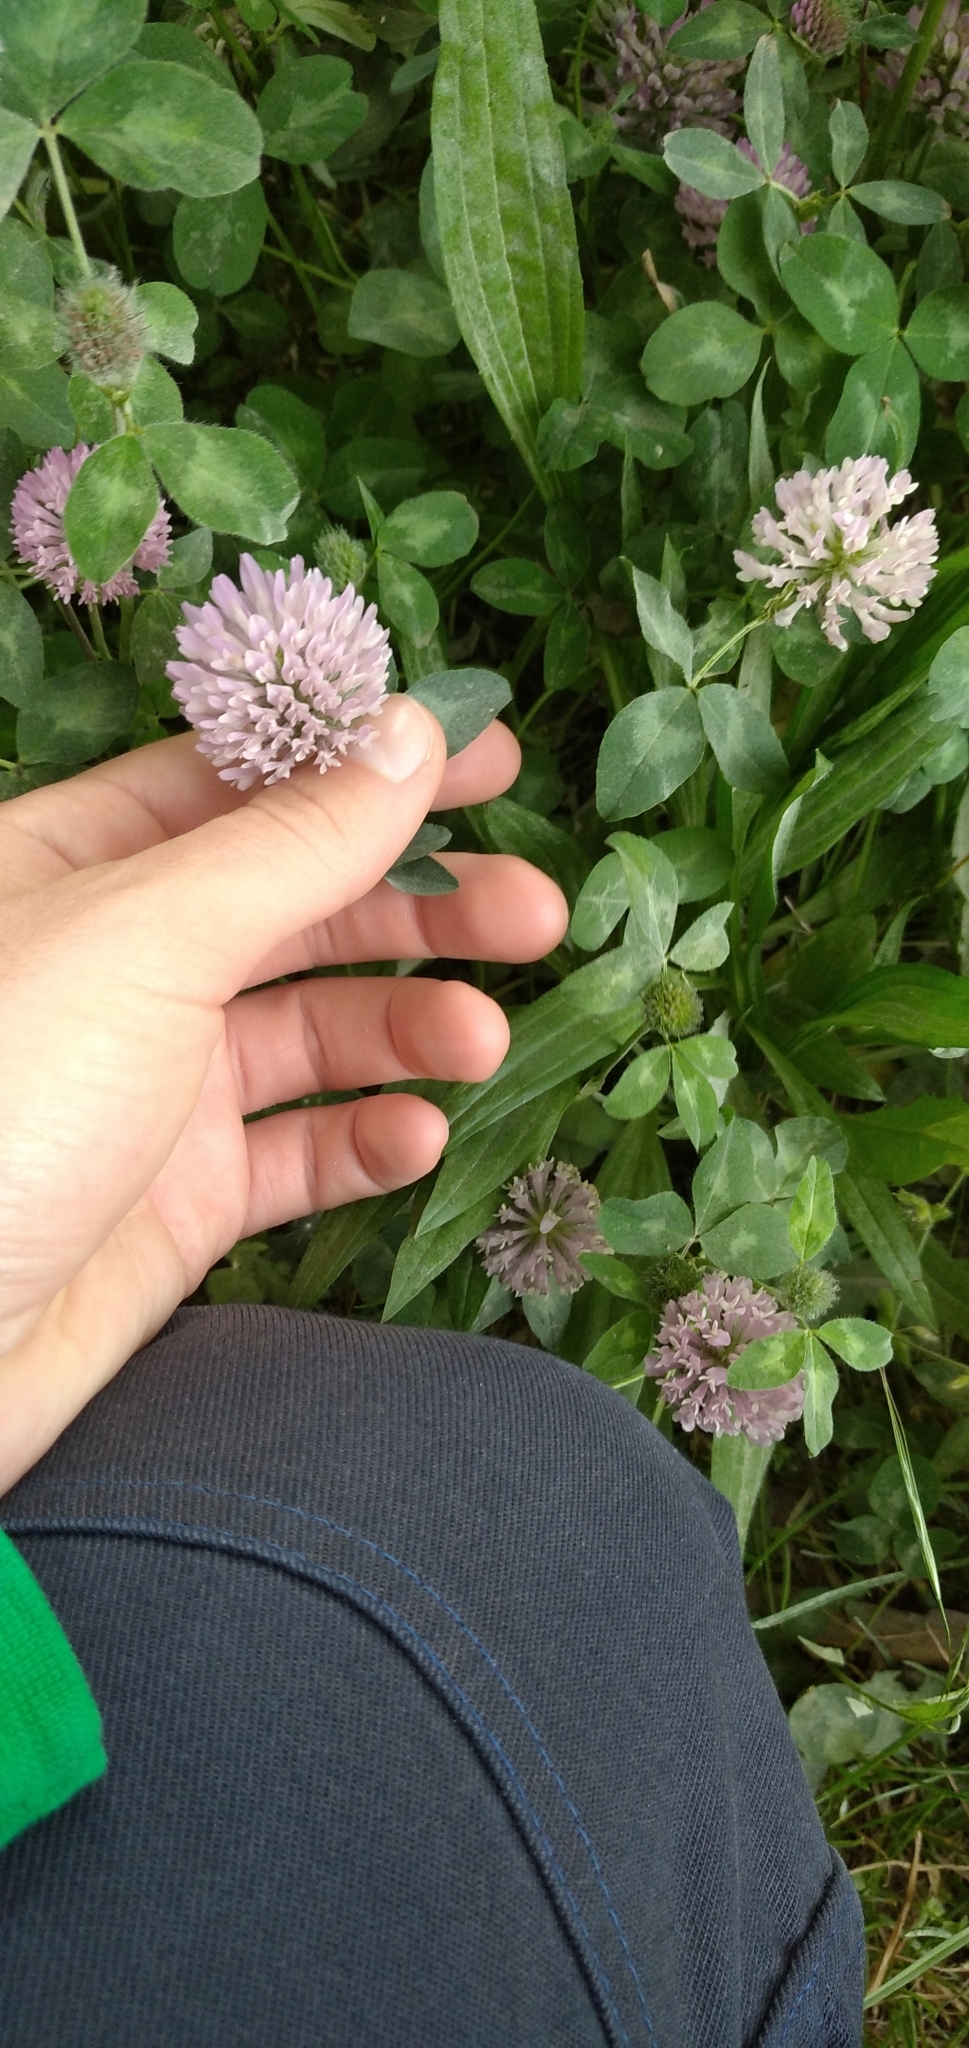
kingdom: Plantae
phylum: Tracheophyta
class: Magnoliopsida
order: Fabales
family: Fabaceae
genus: Trifolium
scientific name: Trifolium pratense
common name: Red clover
